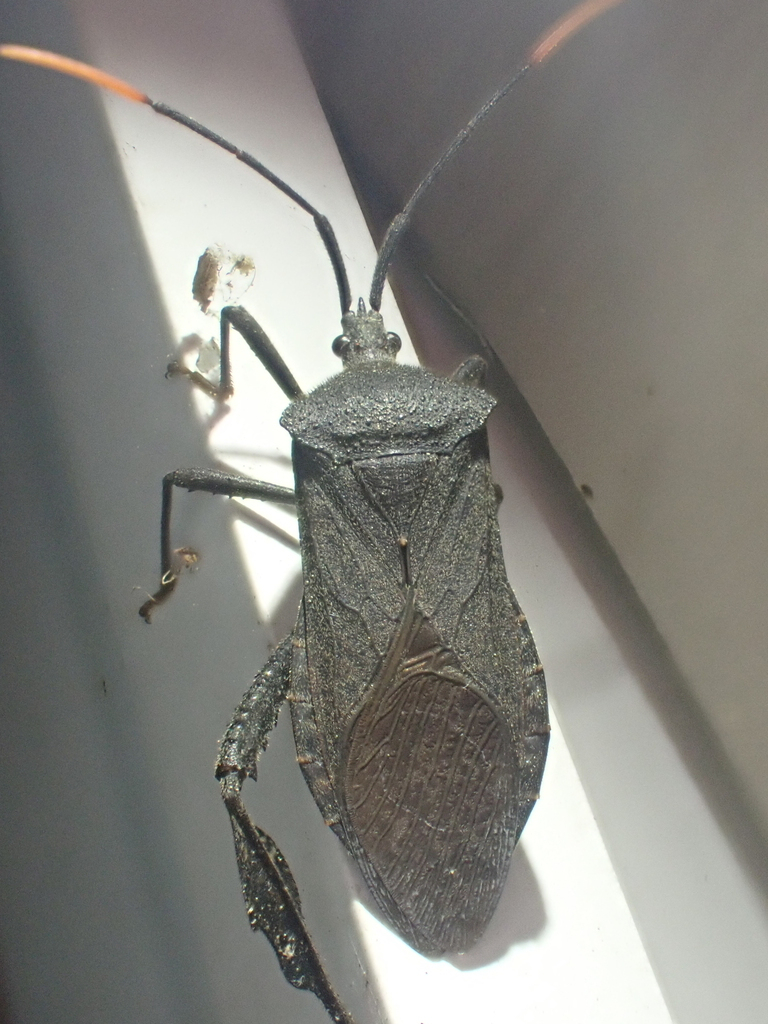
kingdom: Animalia
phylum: Arthropoda
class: Insecta
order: Hemiptera
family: Coreidae
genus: Acanthocephala
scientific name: Acanthocephala terminalis
